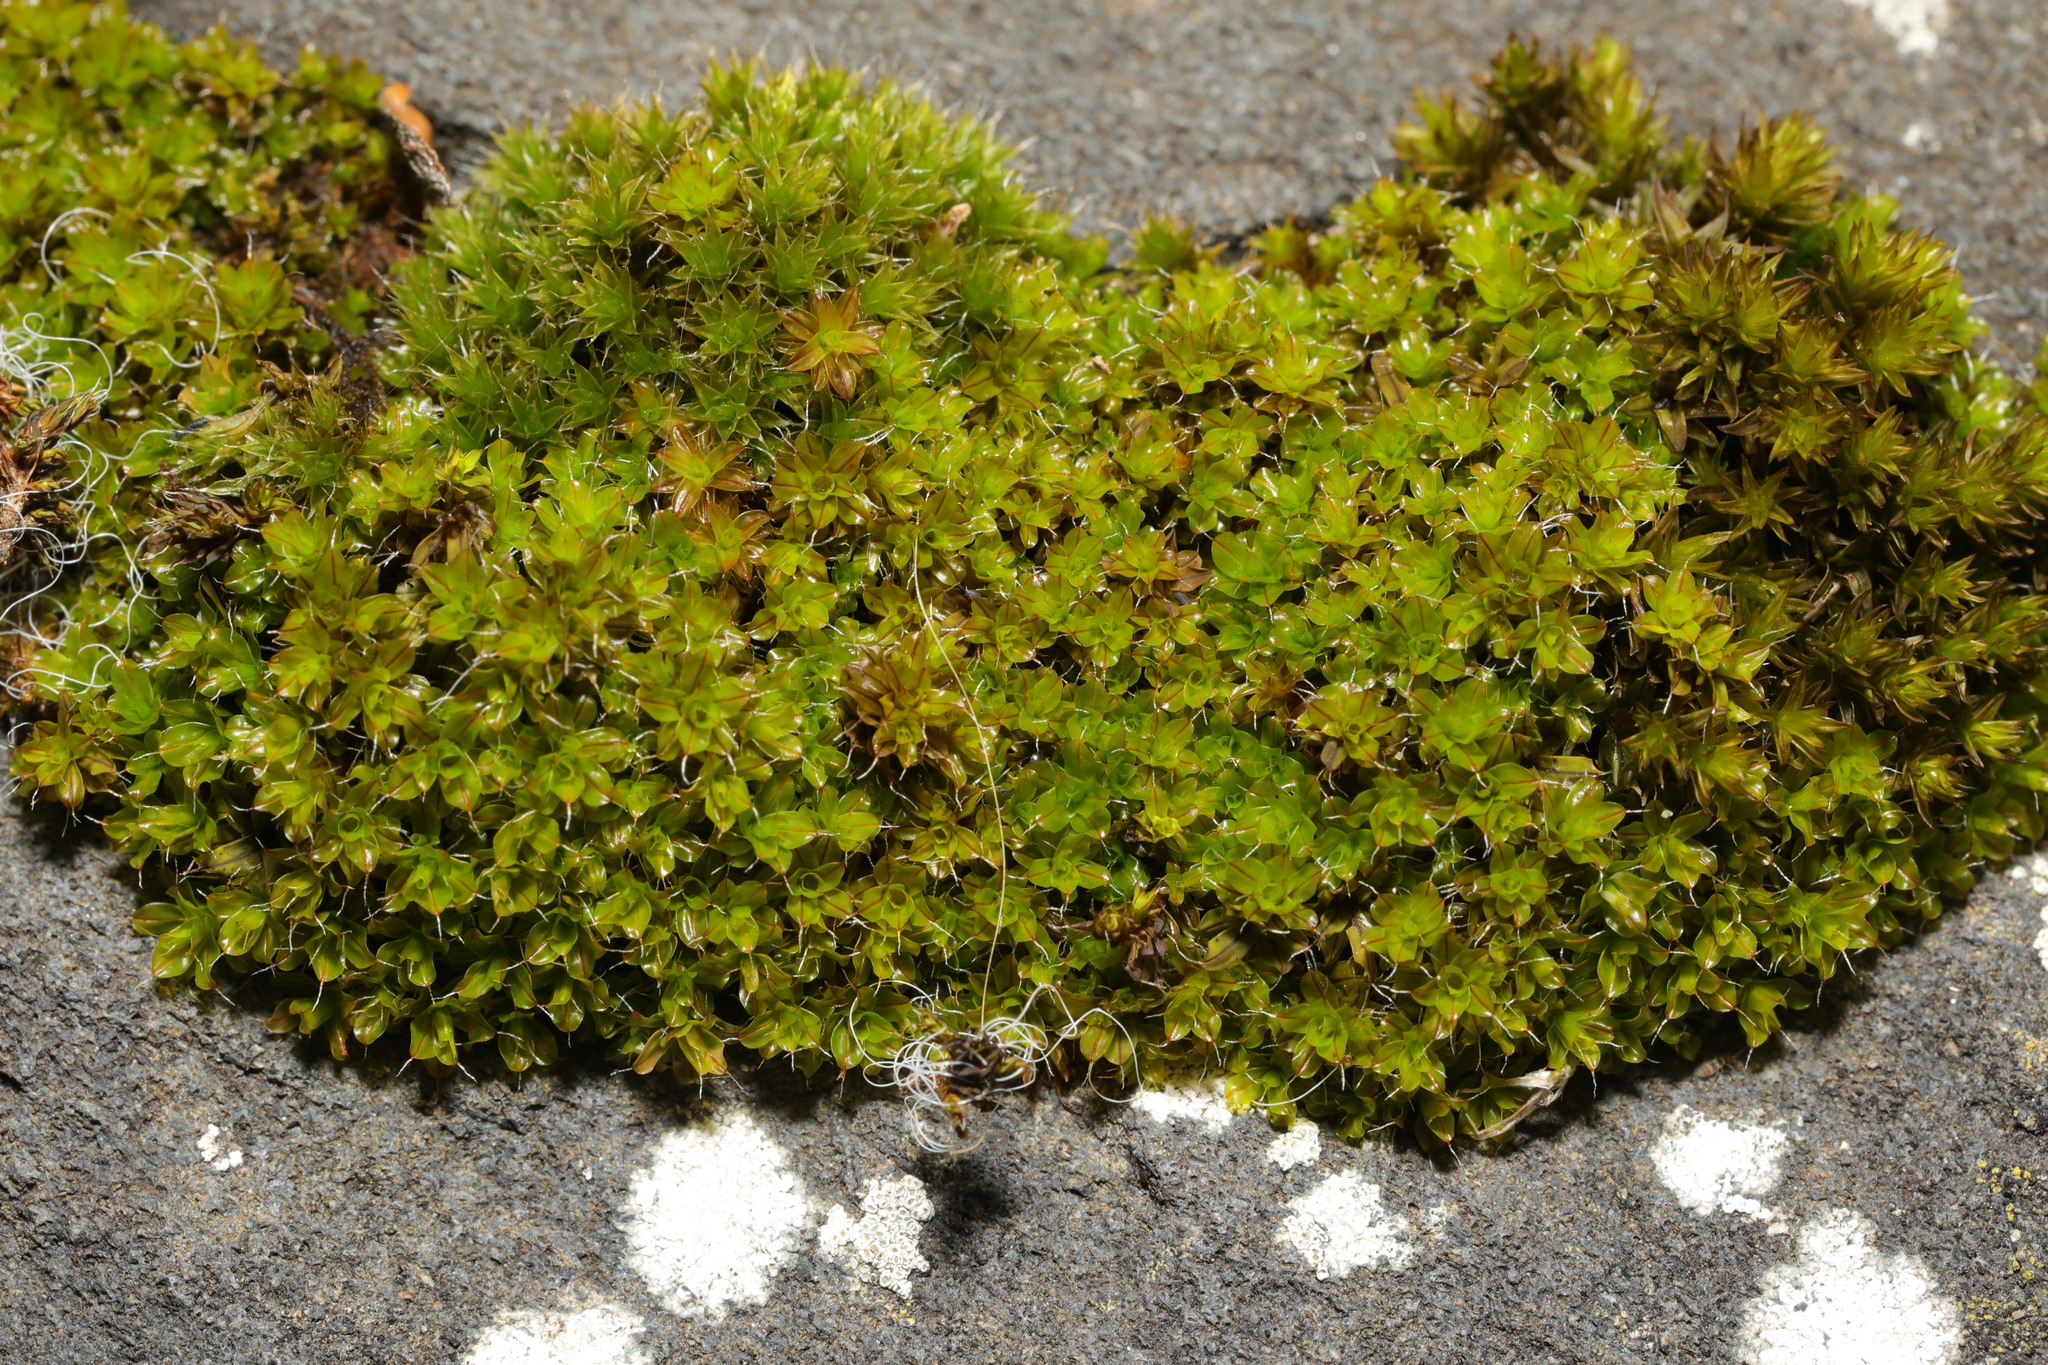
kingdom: Plantae
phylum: Bryophyta
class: Bryopsida
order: Pottiales
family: Pottiaceae
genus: Syntrichia
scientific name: Syntrichia montana
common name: Intermediate screw-moss
